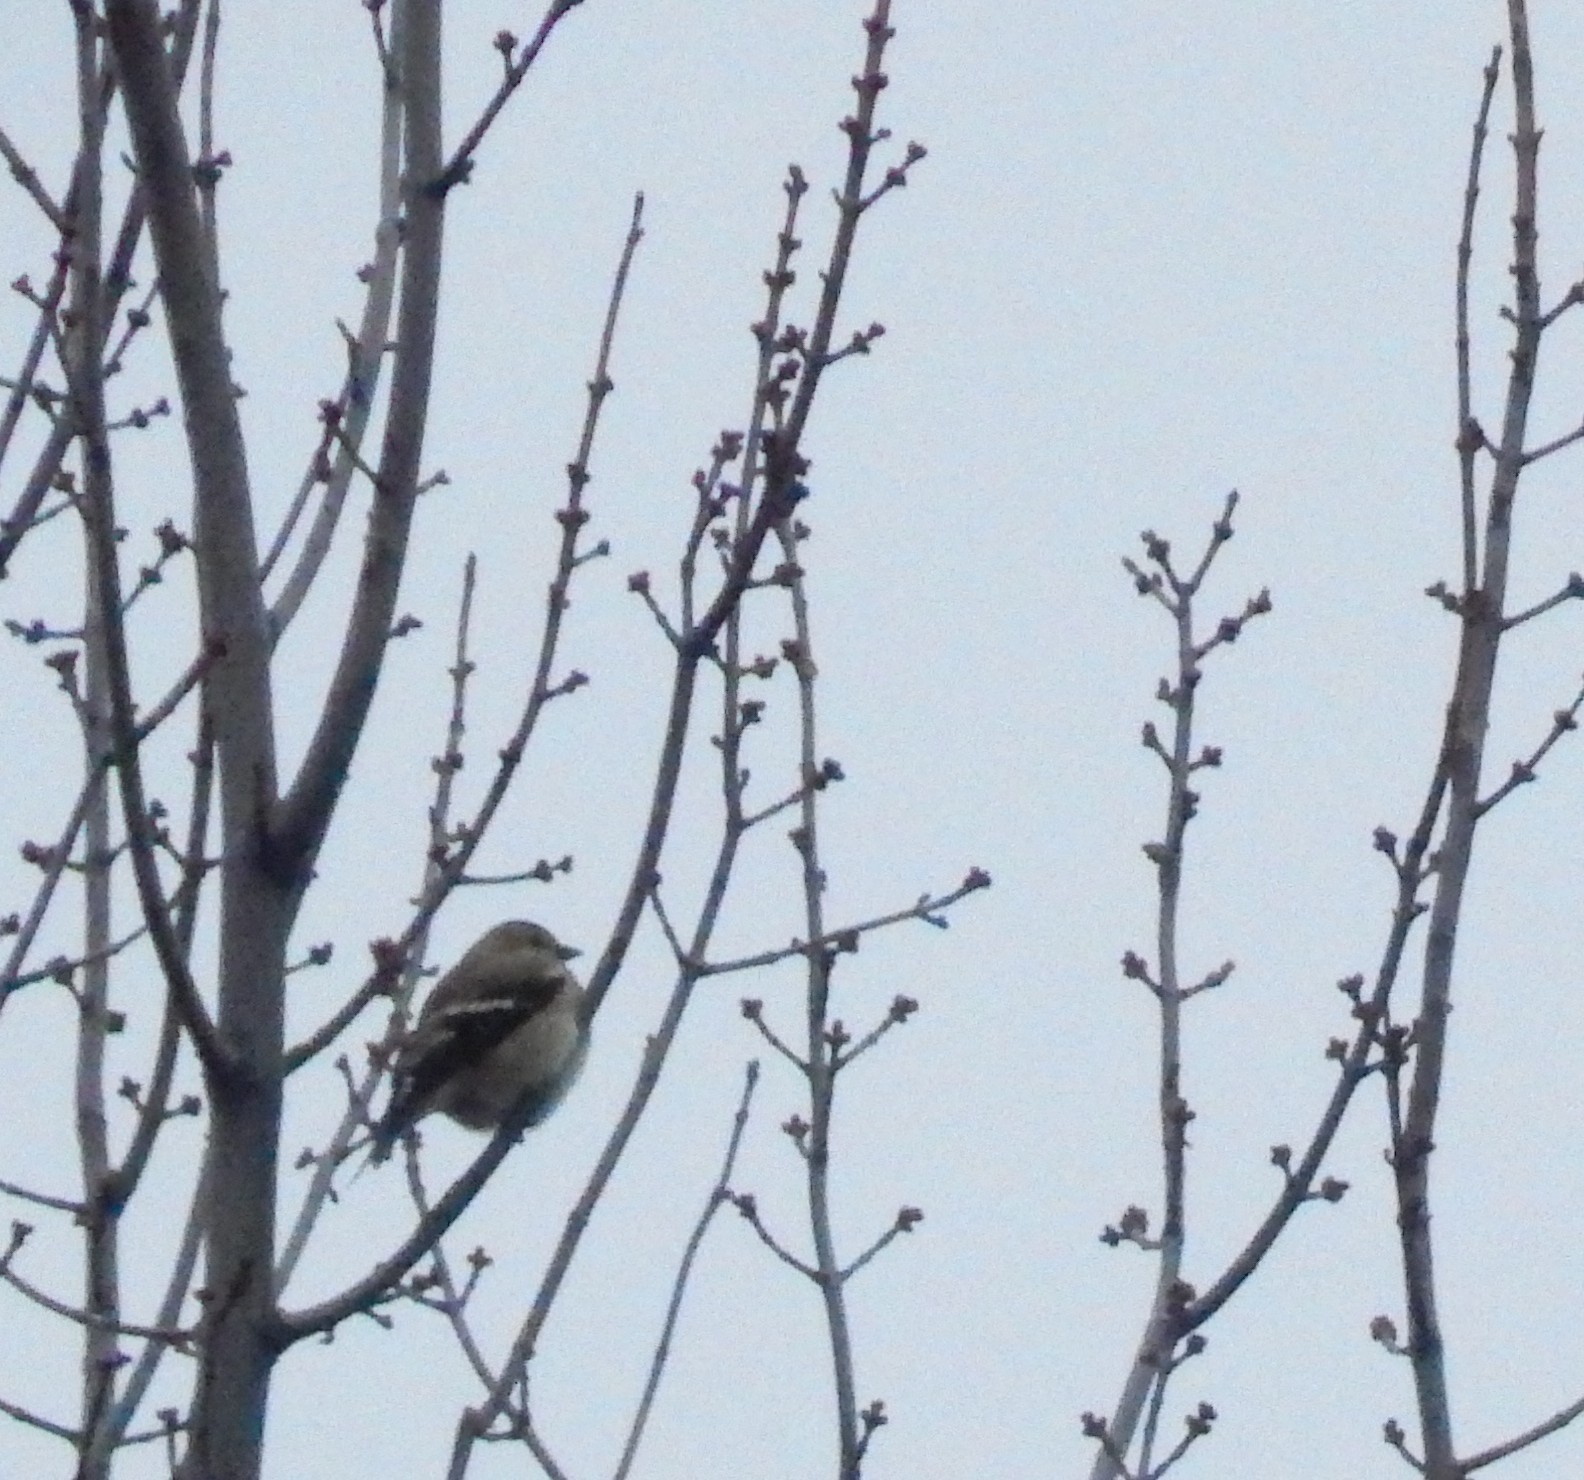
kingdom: Animalia
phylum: Chordata
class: Aves
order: Passeriformes
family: Fringillidae
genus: Spinus
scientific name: Spinus tristis
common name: American goldfinch
